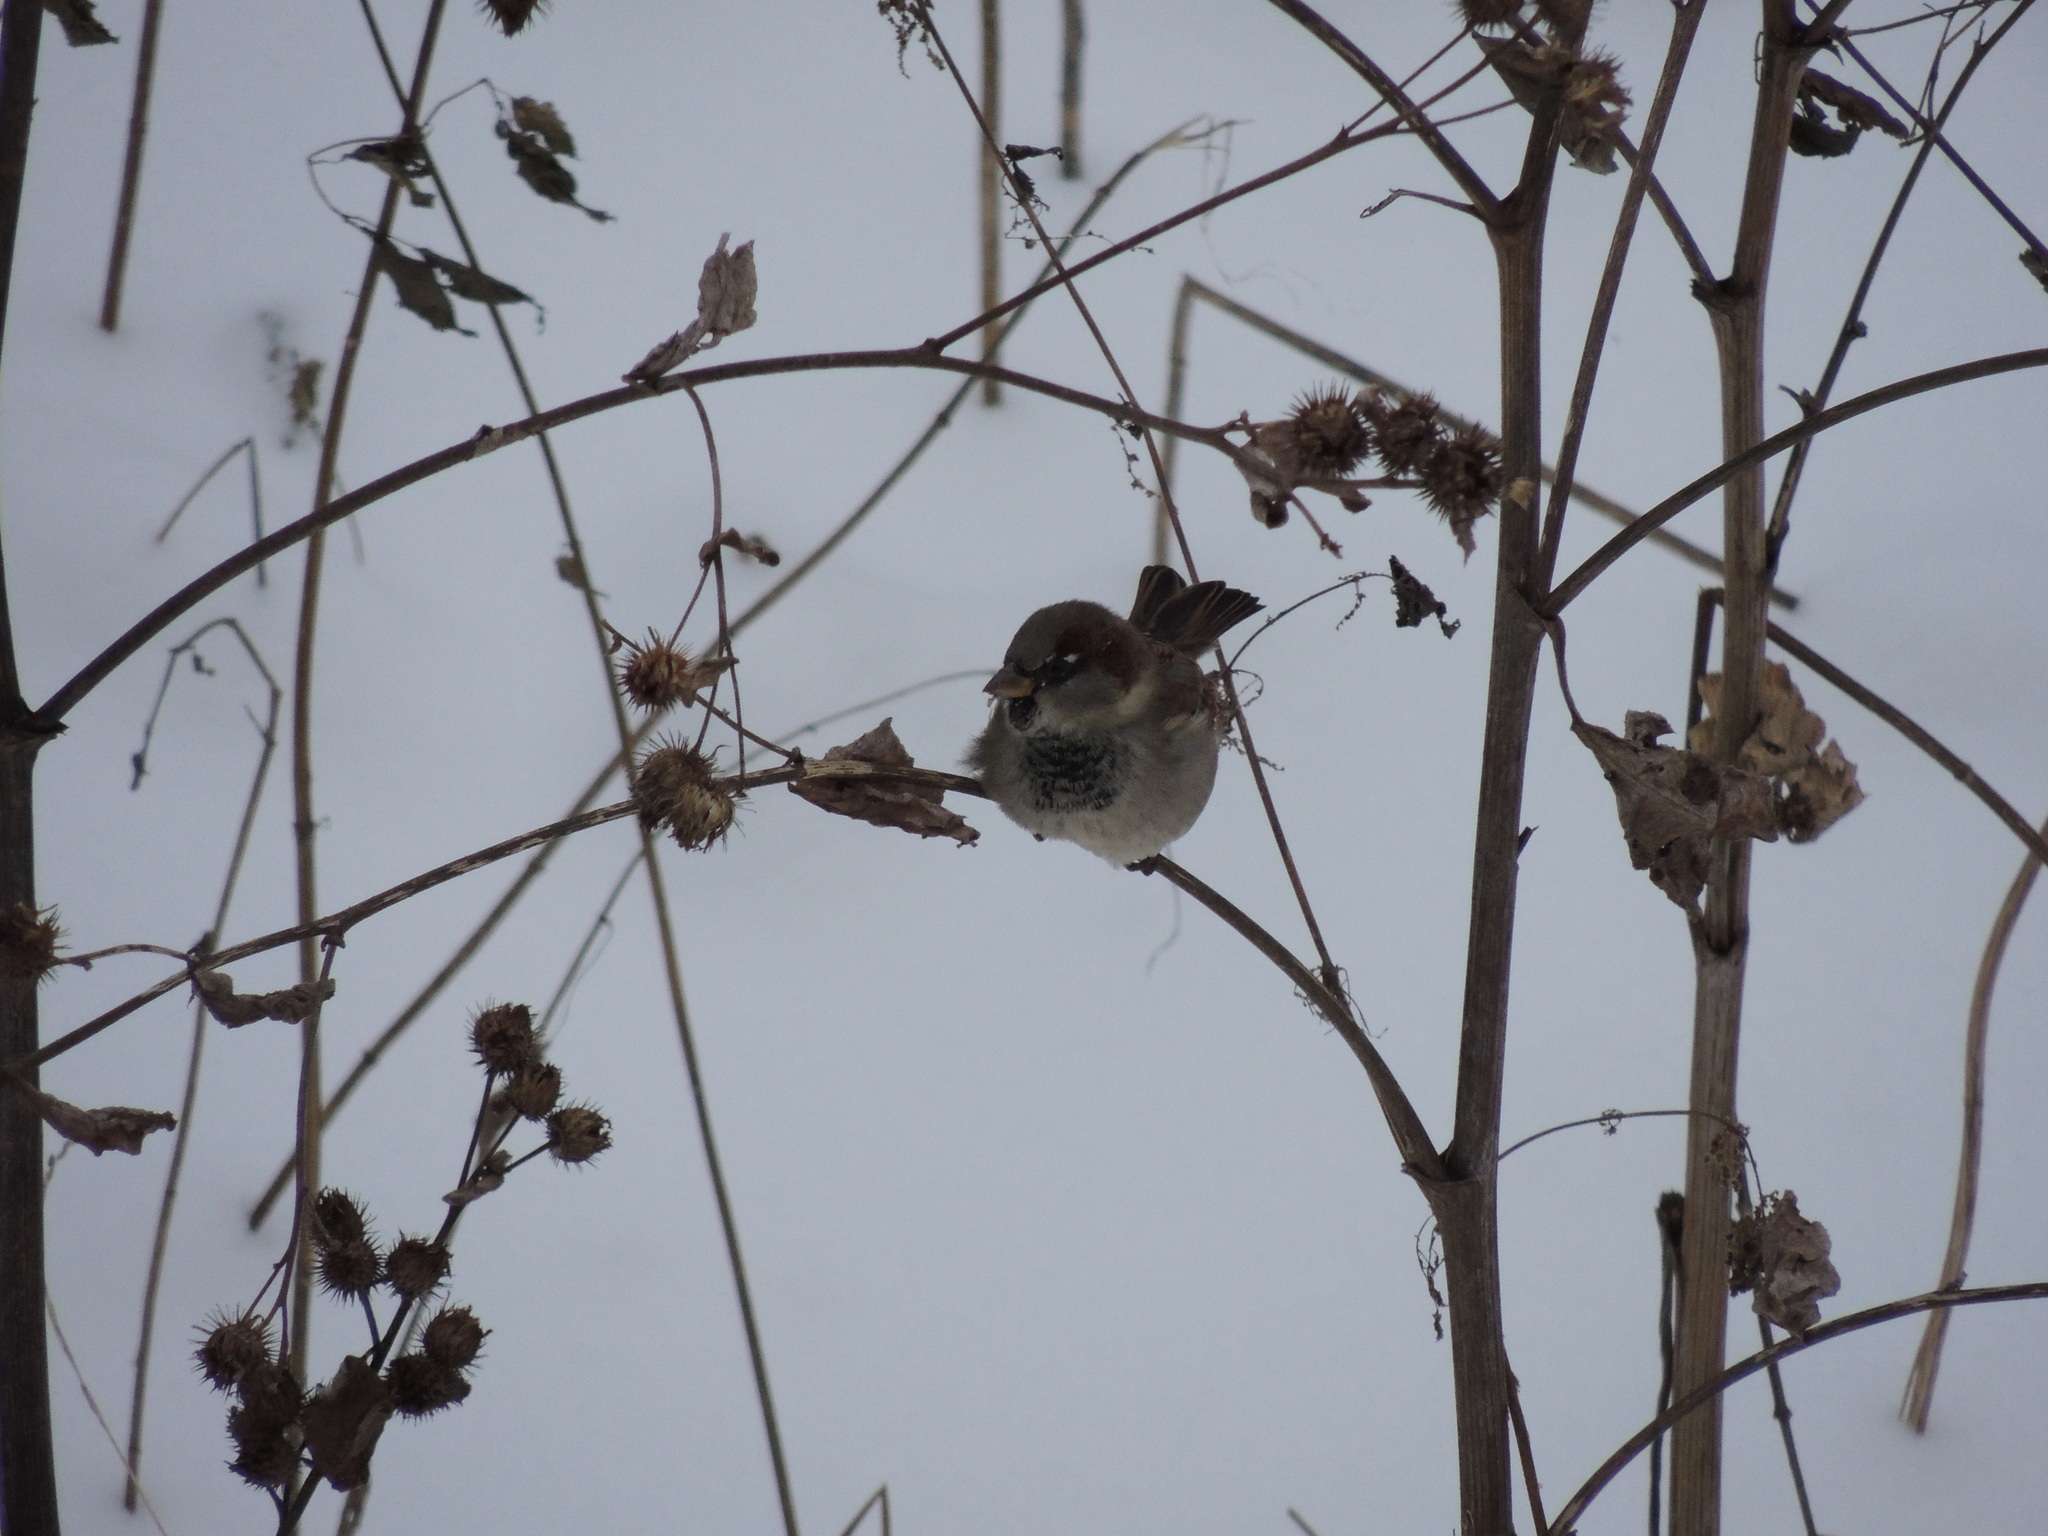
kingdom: Animalia
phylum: Chordata
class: Aves
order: Passeriformes
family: Passeridae
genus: Passer
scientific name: Passer domesticus
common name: House sparrow
